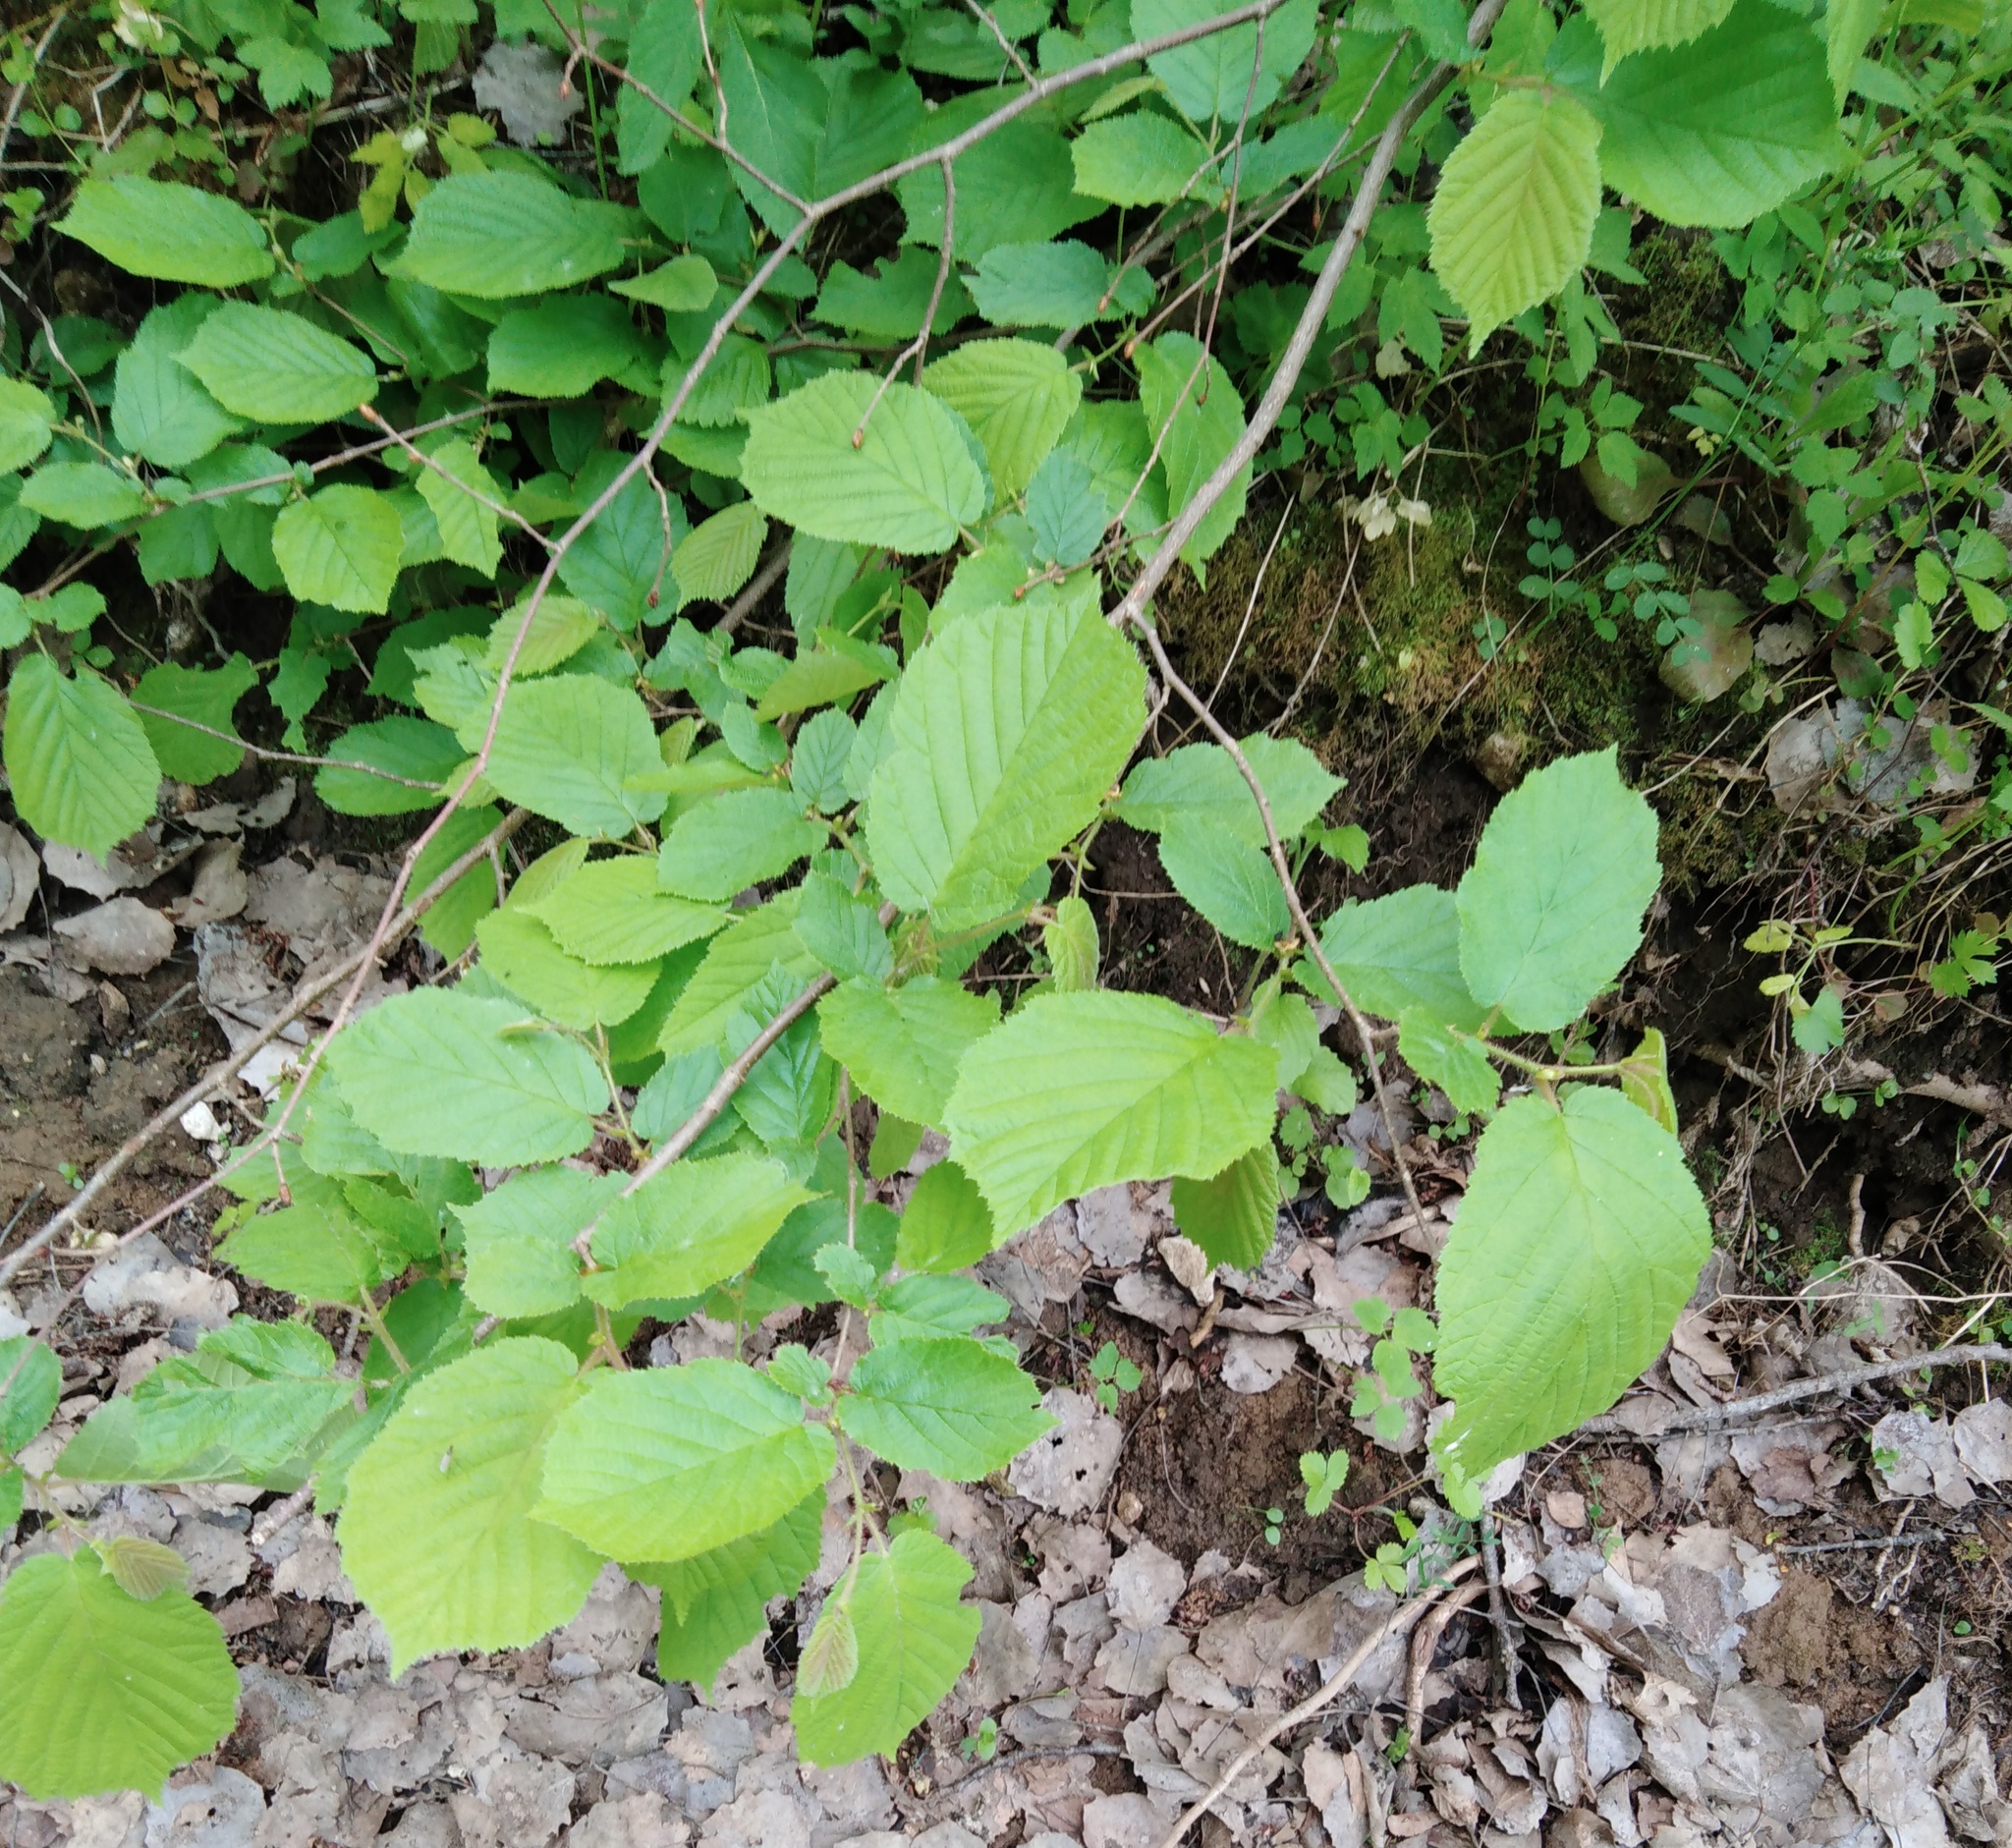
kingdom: Plantae
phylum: Tracheophyta
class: Magnoliopsida
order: Fagales
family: Betulaceae
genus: Corylus
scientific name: Corylus avellana
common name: European hazel
